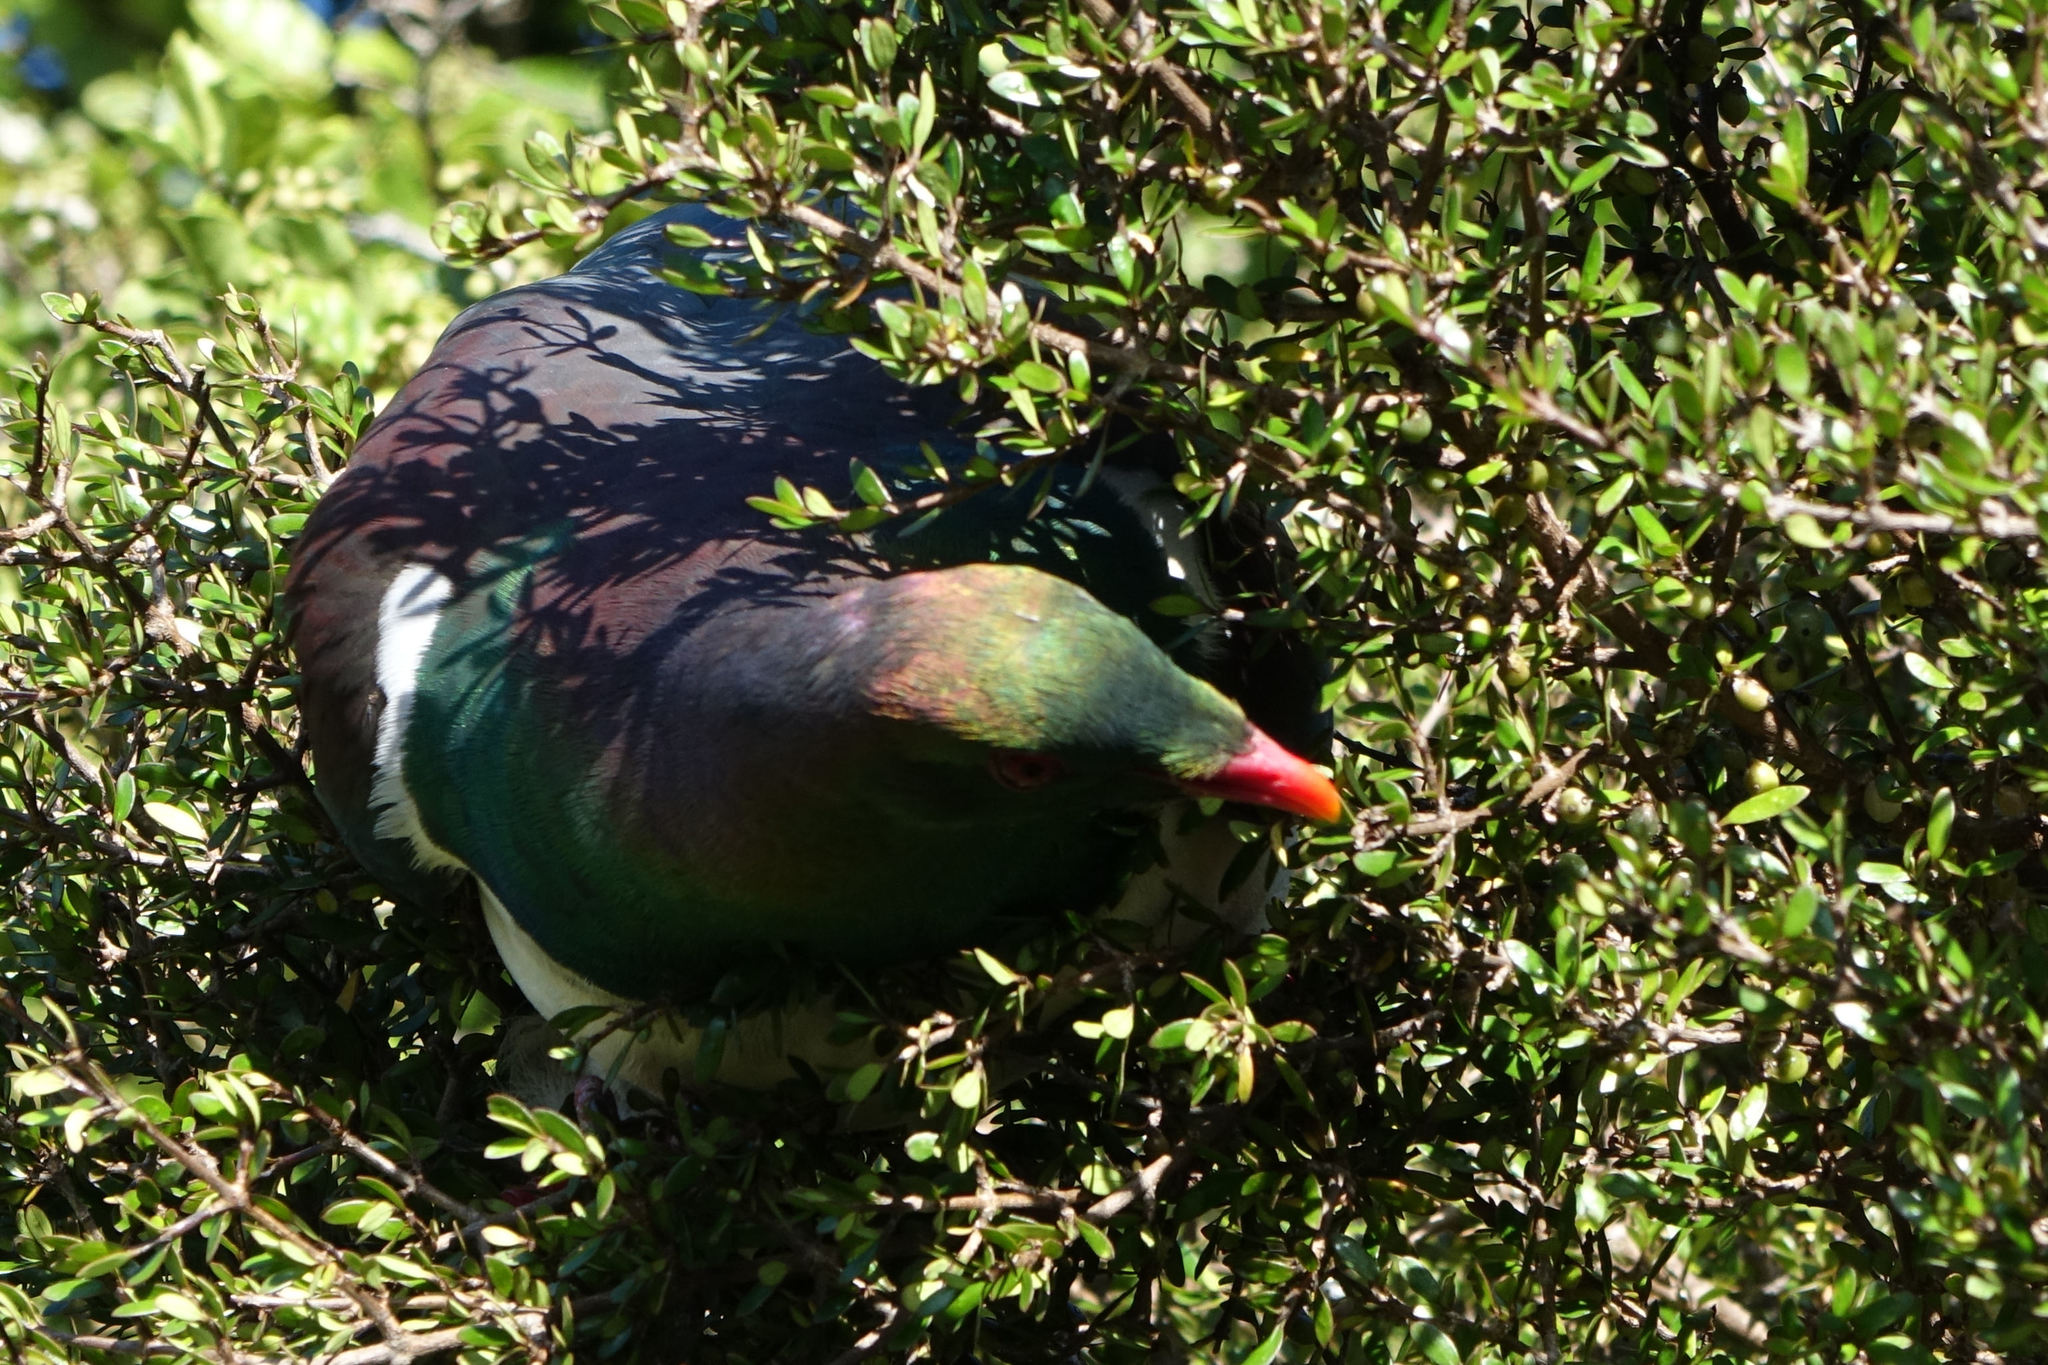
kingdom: Animalia
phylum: Chordata
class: Aves
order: Columbiformes
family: Columbidae
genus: Hemiphaga
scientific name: Hemiphaga novaeseelandiae
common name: New zealand pigeon
